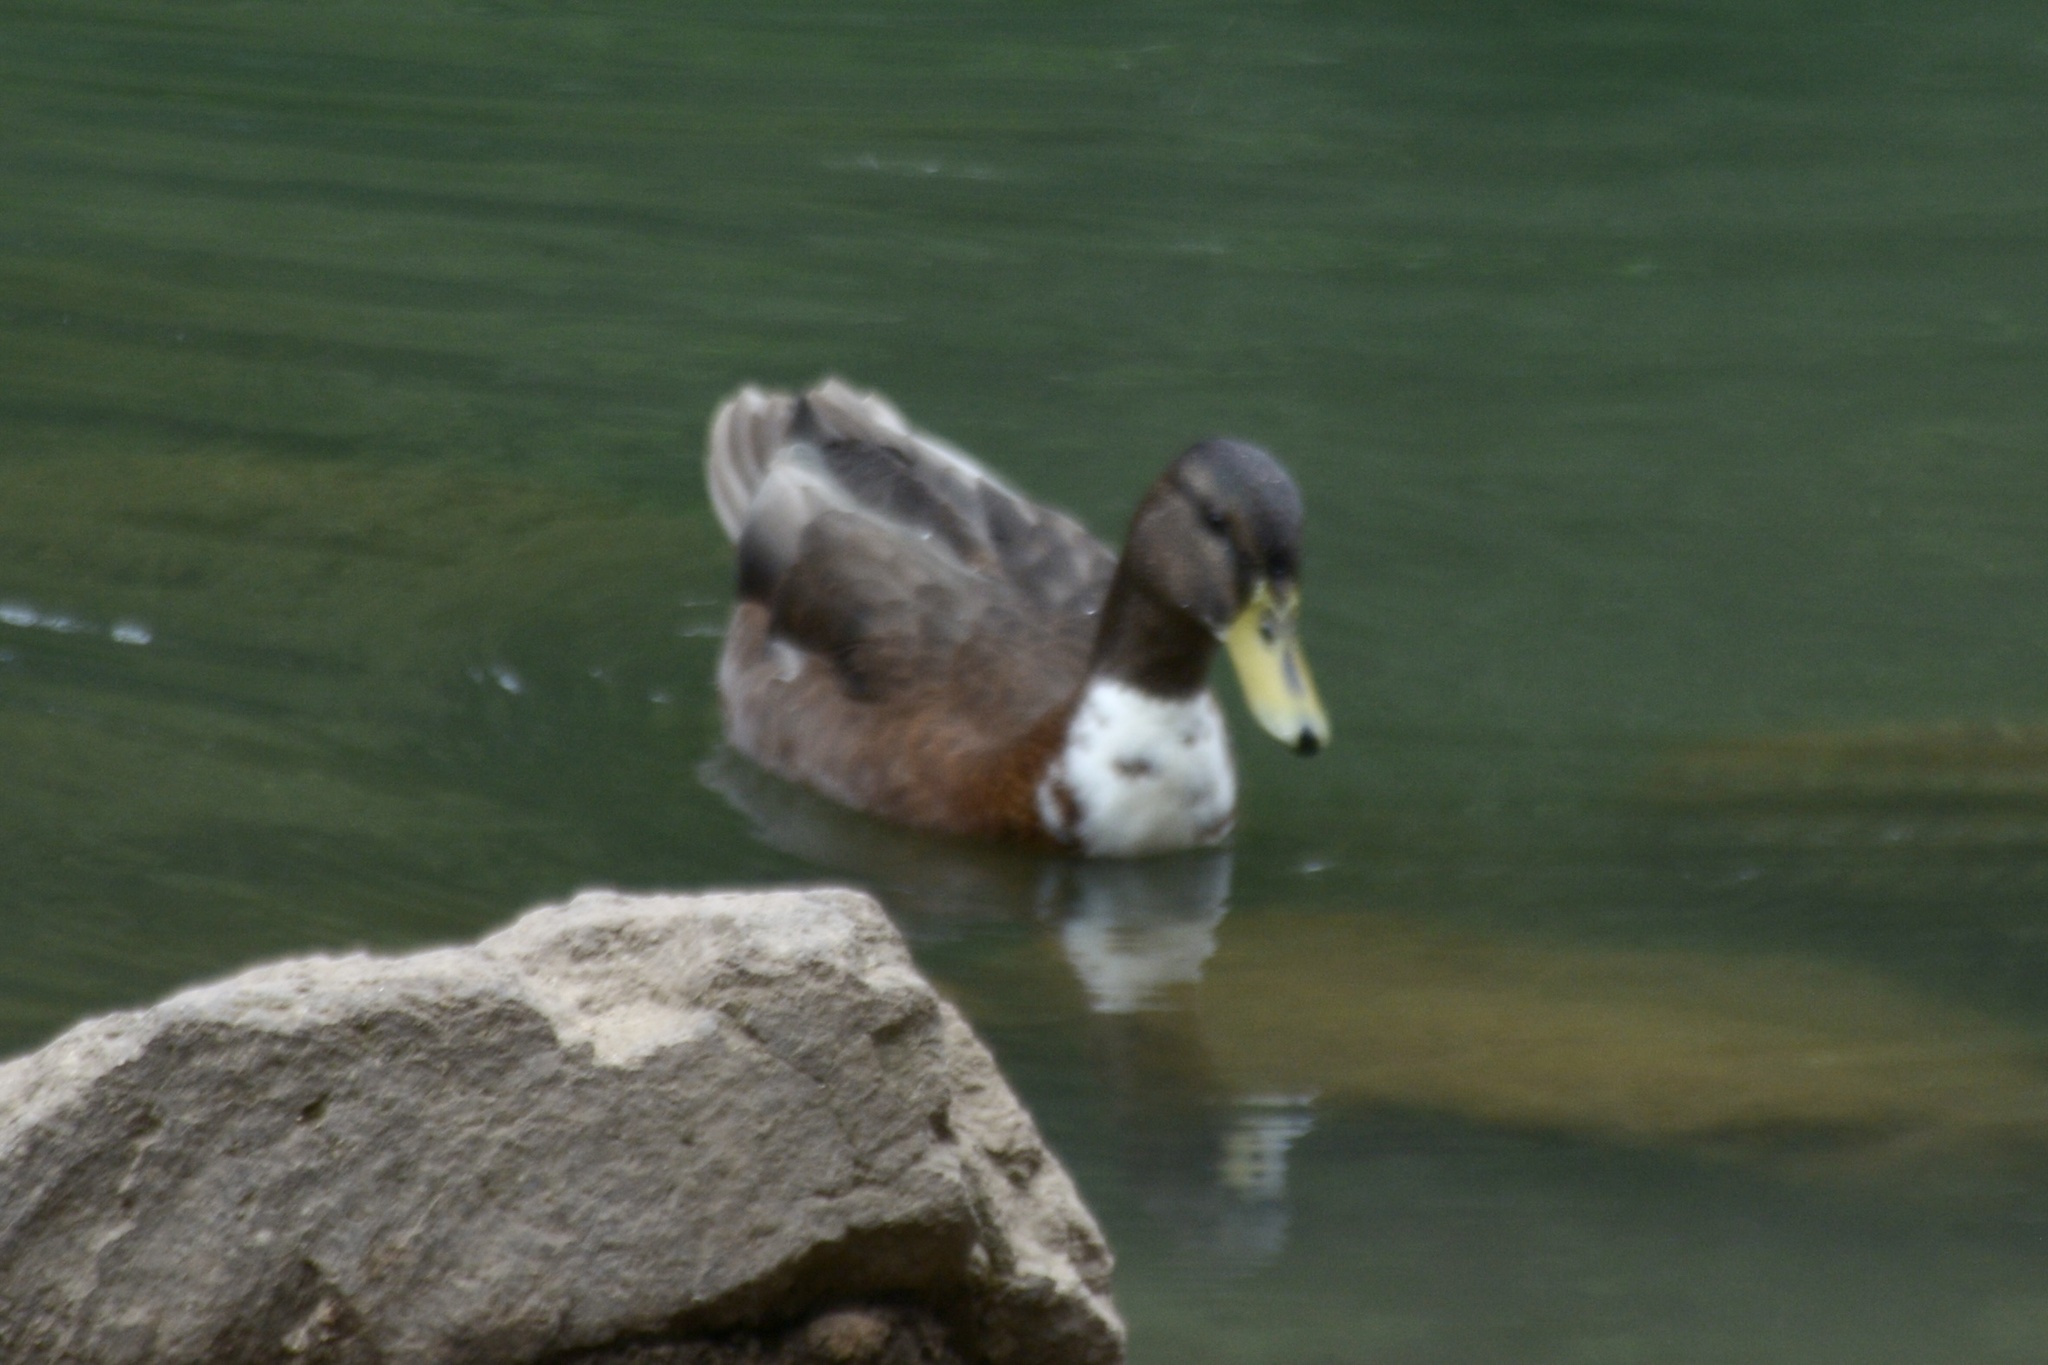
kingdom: Animalia
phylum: Chordata
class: Aves
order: Anseriformes
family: Anatidae
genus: Anas
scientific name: Anas platyrhynchos
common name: Mallard
